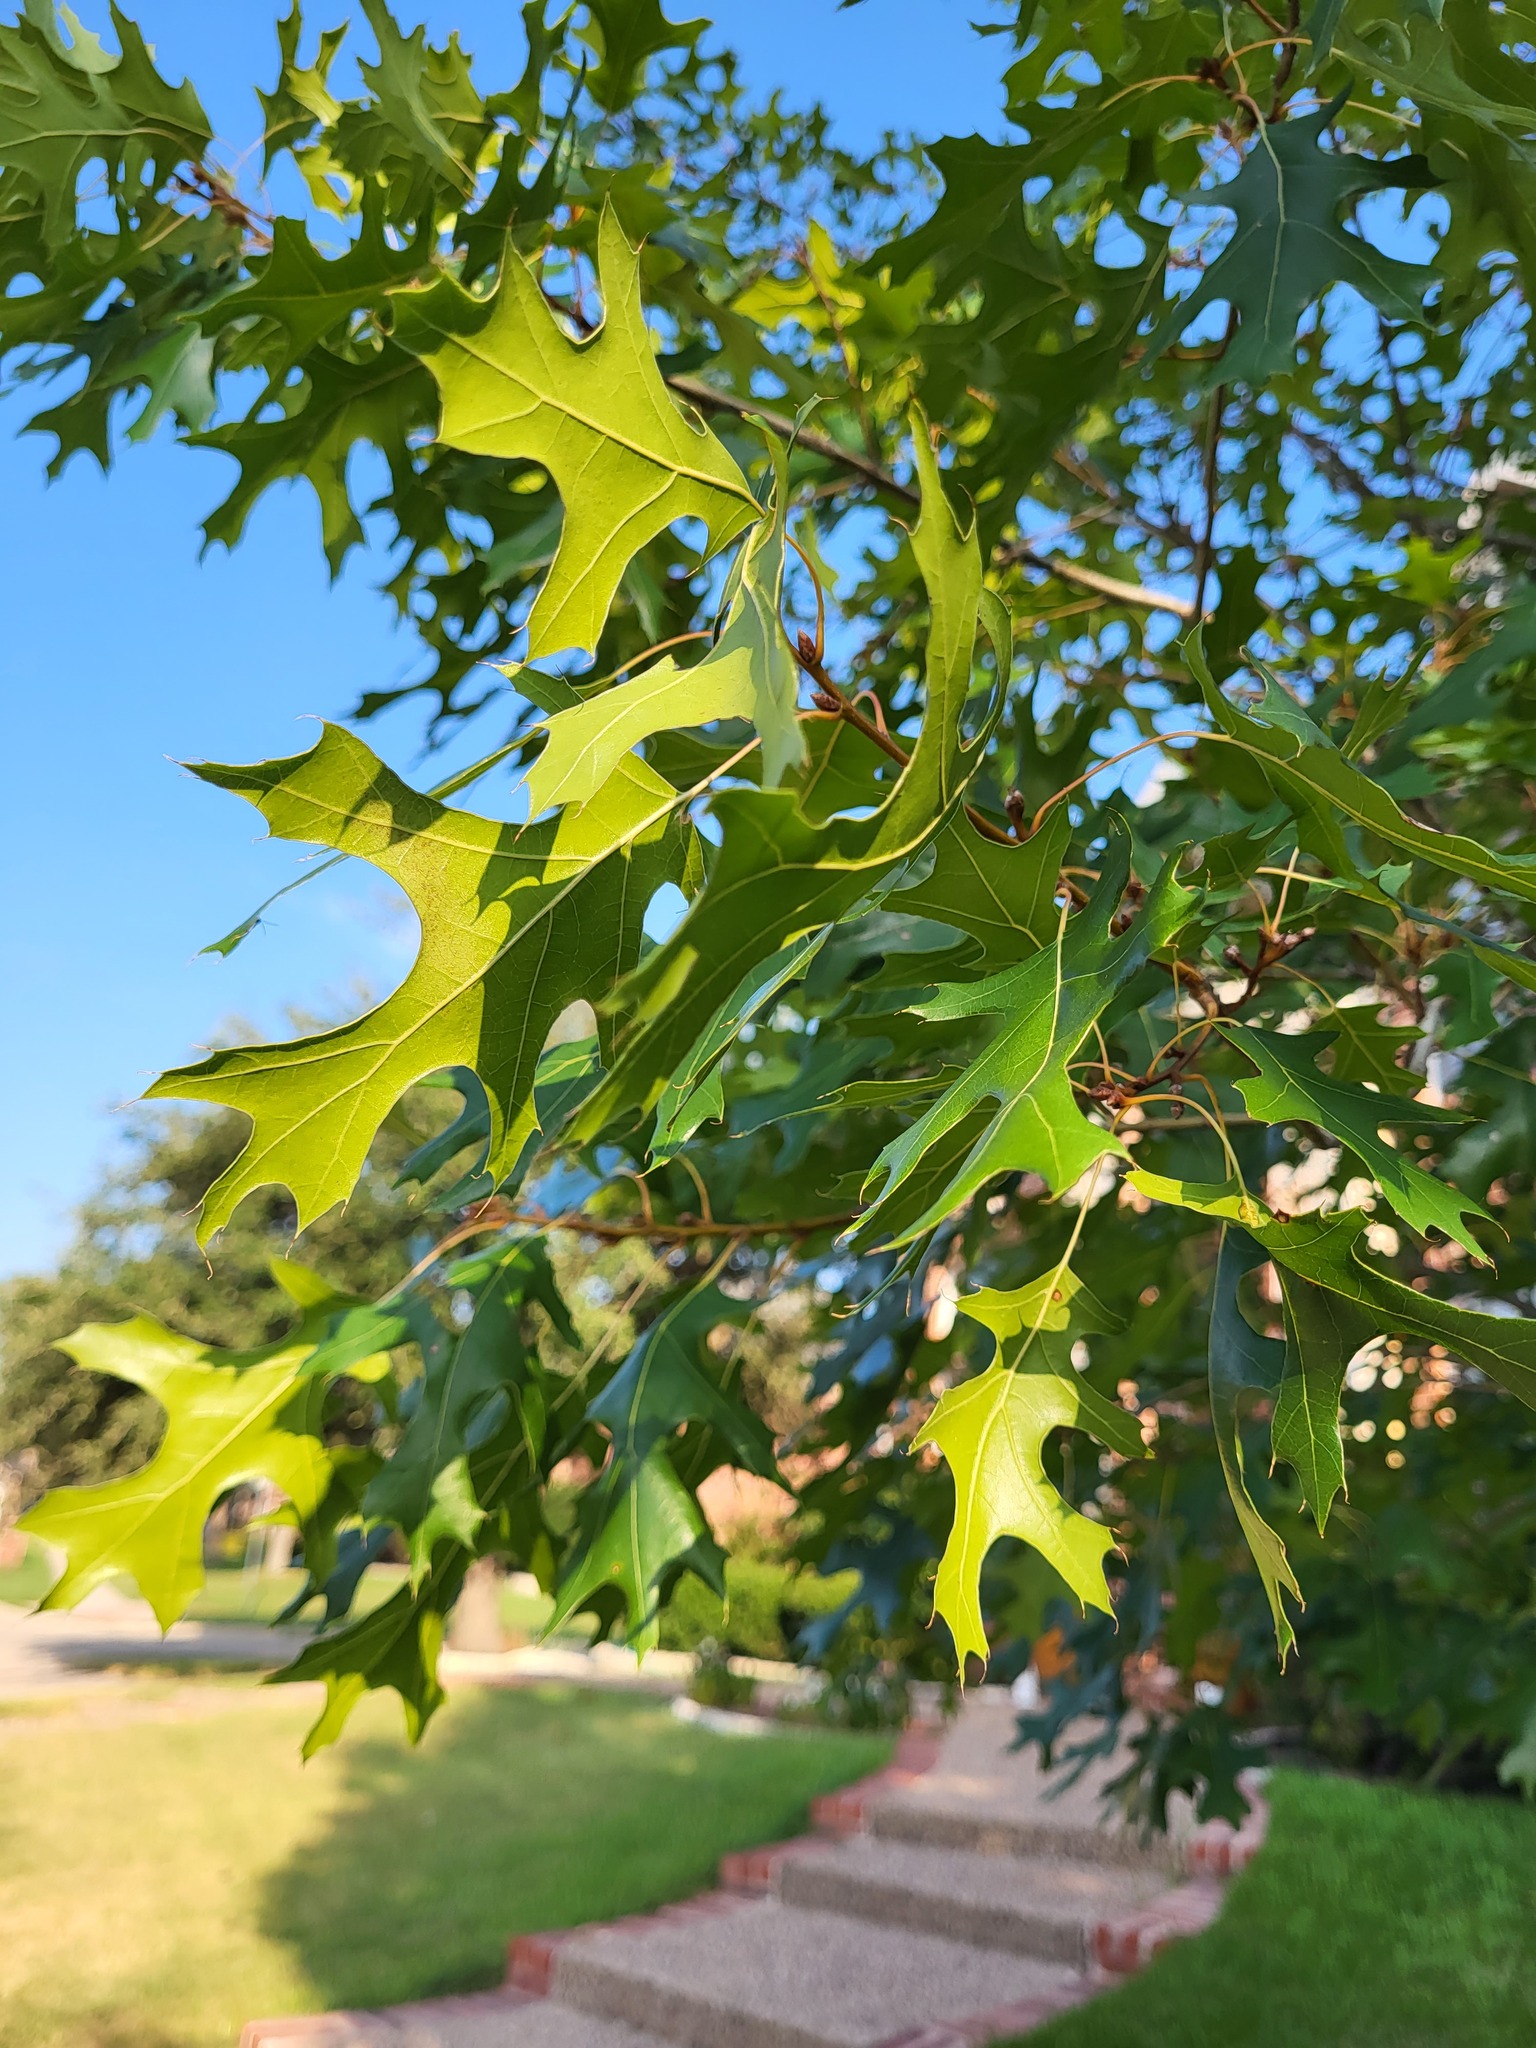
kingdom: Plantae
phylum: Tracheophyta
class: Magnoliopsida
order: Fagales
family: Fagaceae
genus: Quercus
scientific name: Quercus shumardii
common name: Shumard oak
